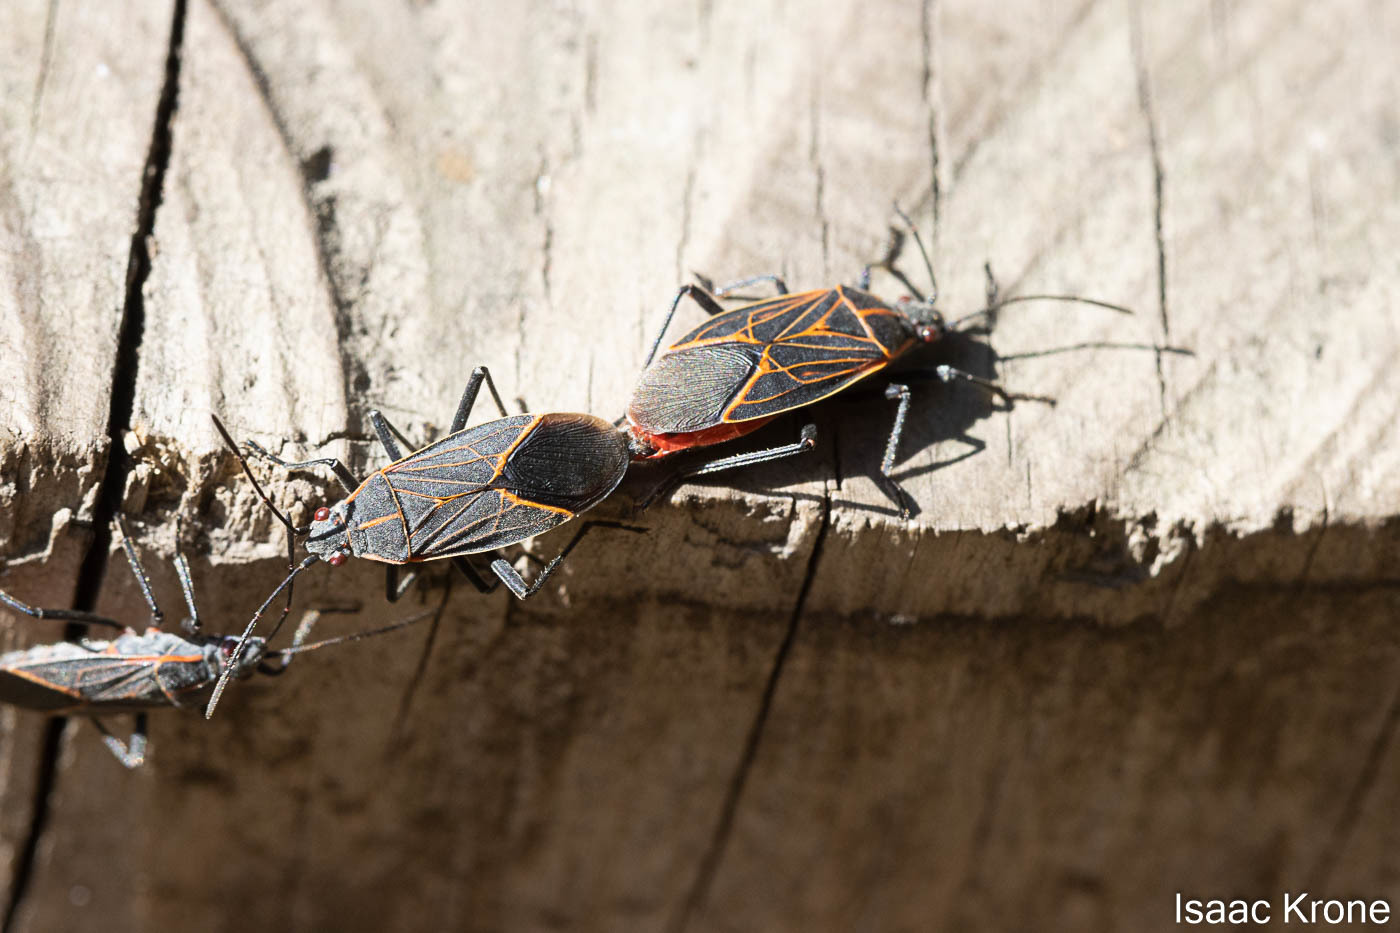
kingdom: Animalia
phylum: Arthropoda
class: Insecta
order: Hemiptera
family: Rhopalidae
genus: Boisea
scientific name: Boisea rubrolineata
